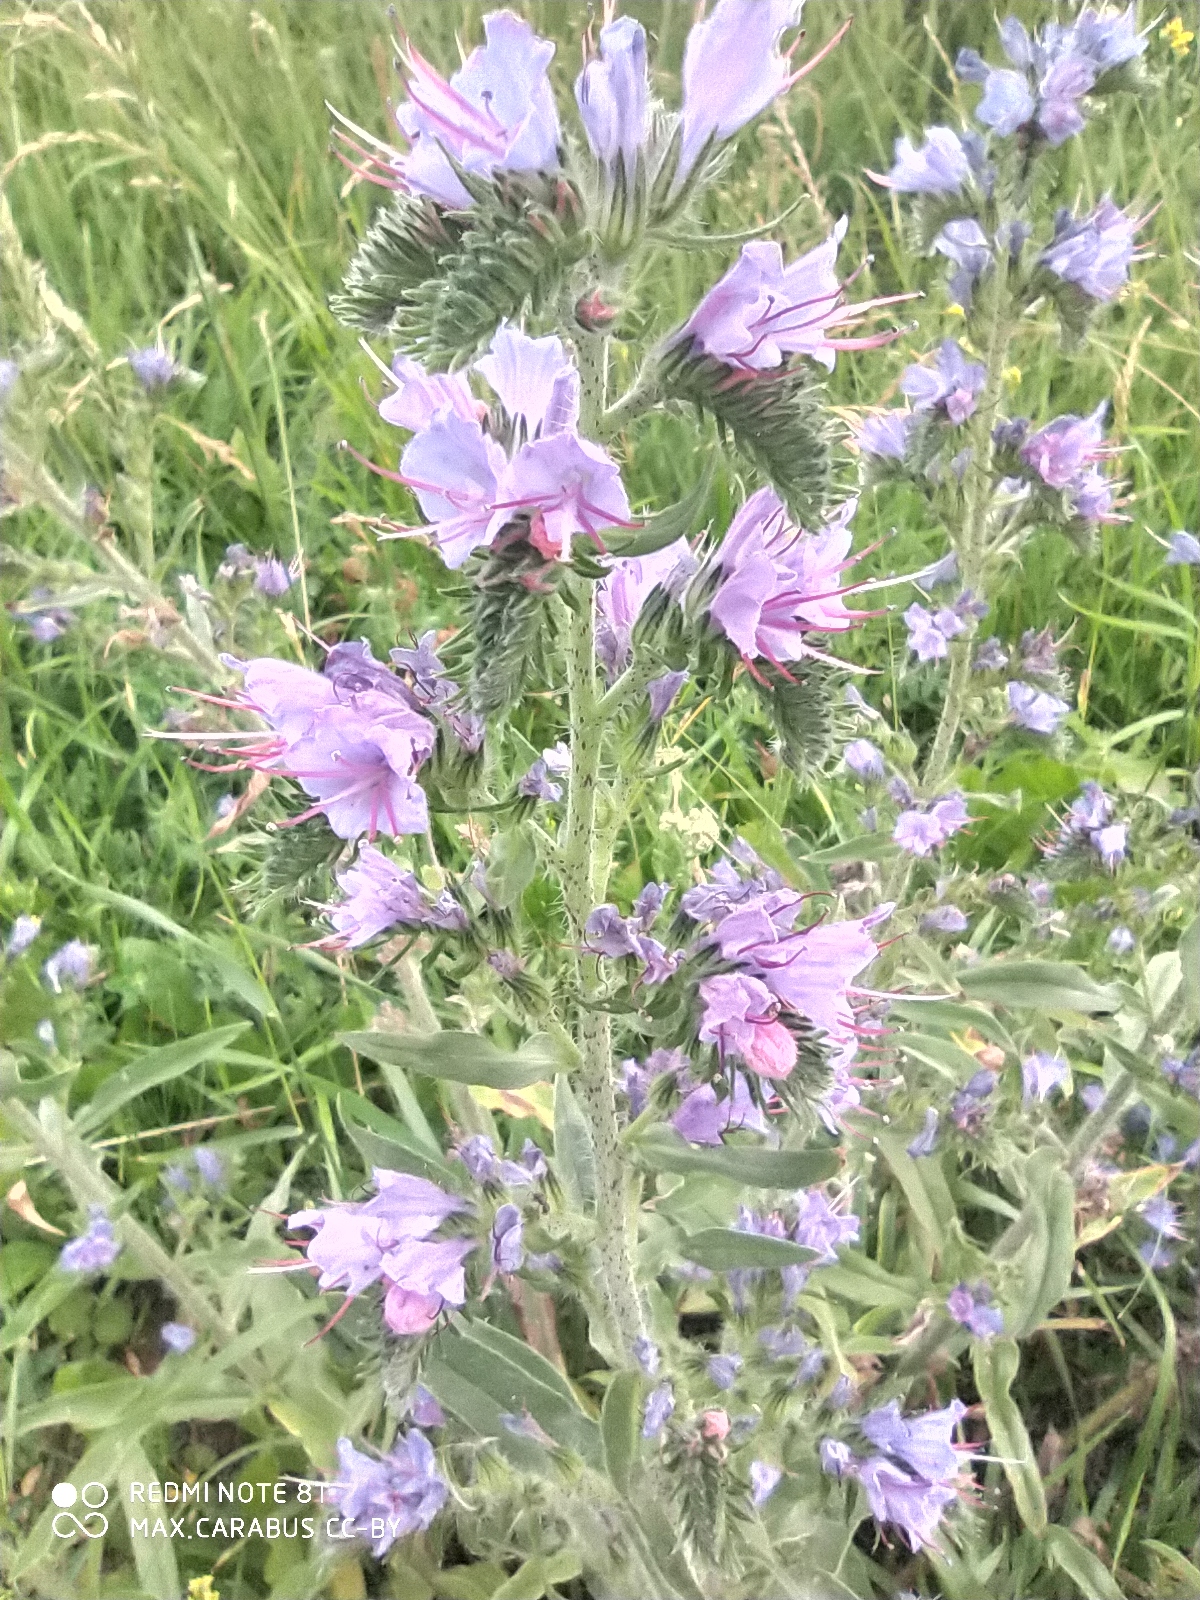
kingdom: Plantae
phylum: Tracheophyta
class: Magnoliopsida
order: Boraginales
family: Boraginaceae
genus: Echium
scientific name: Echium vulgare
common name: Common viper's bugloss
